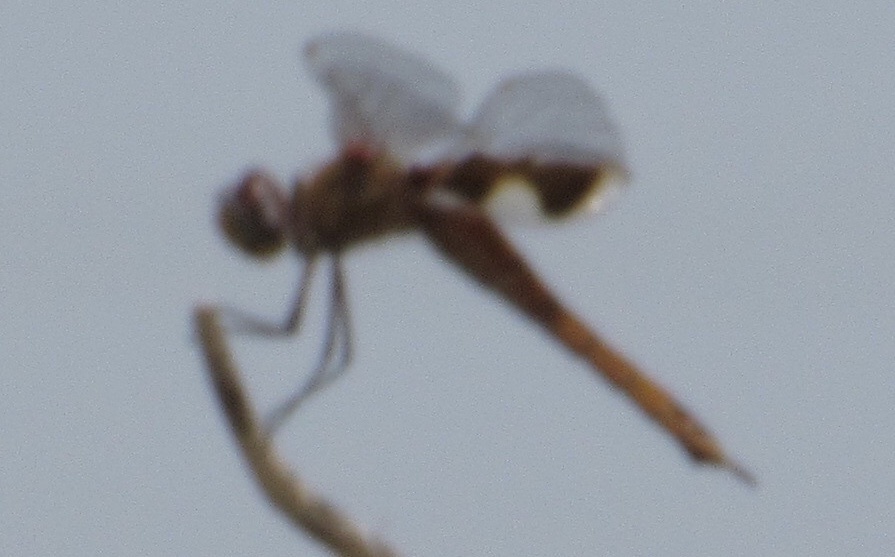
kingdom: Animalia
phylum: Arthropoda
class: Insecta
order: Odonata
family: Libellulidae
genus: Tramea
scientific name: Tramea onusta
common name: Red saddlebags
